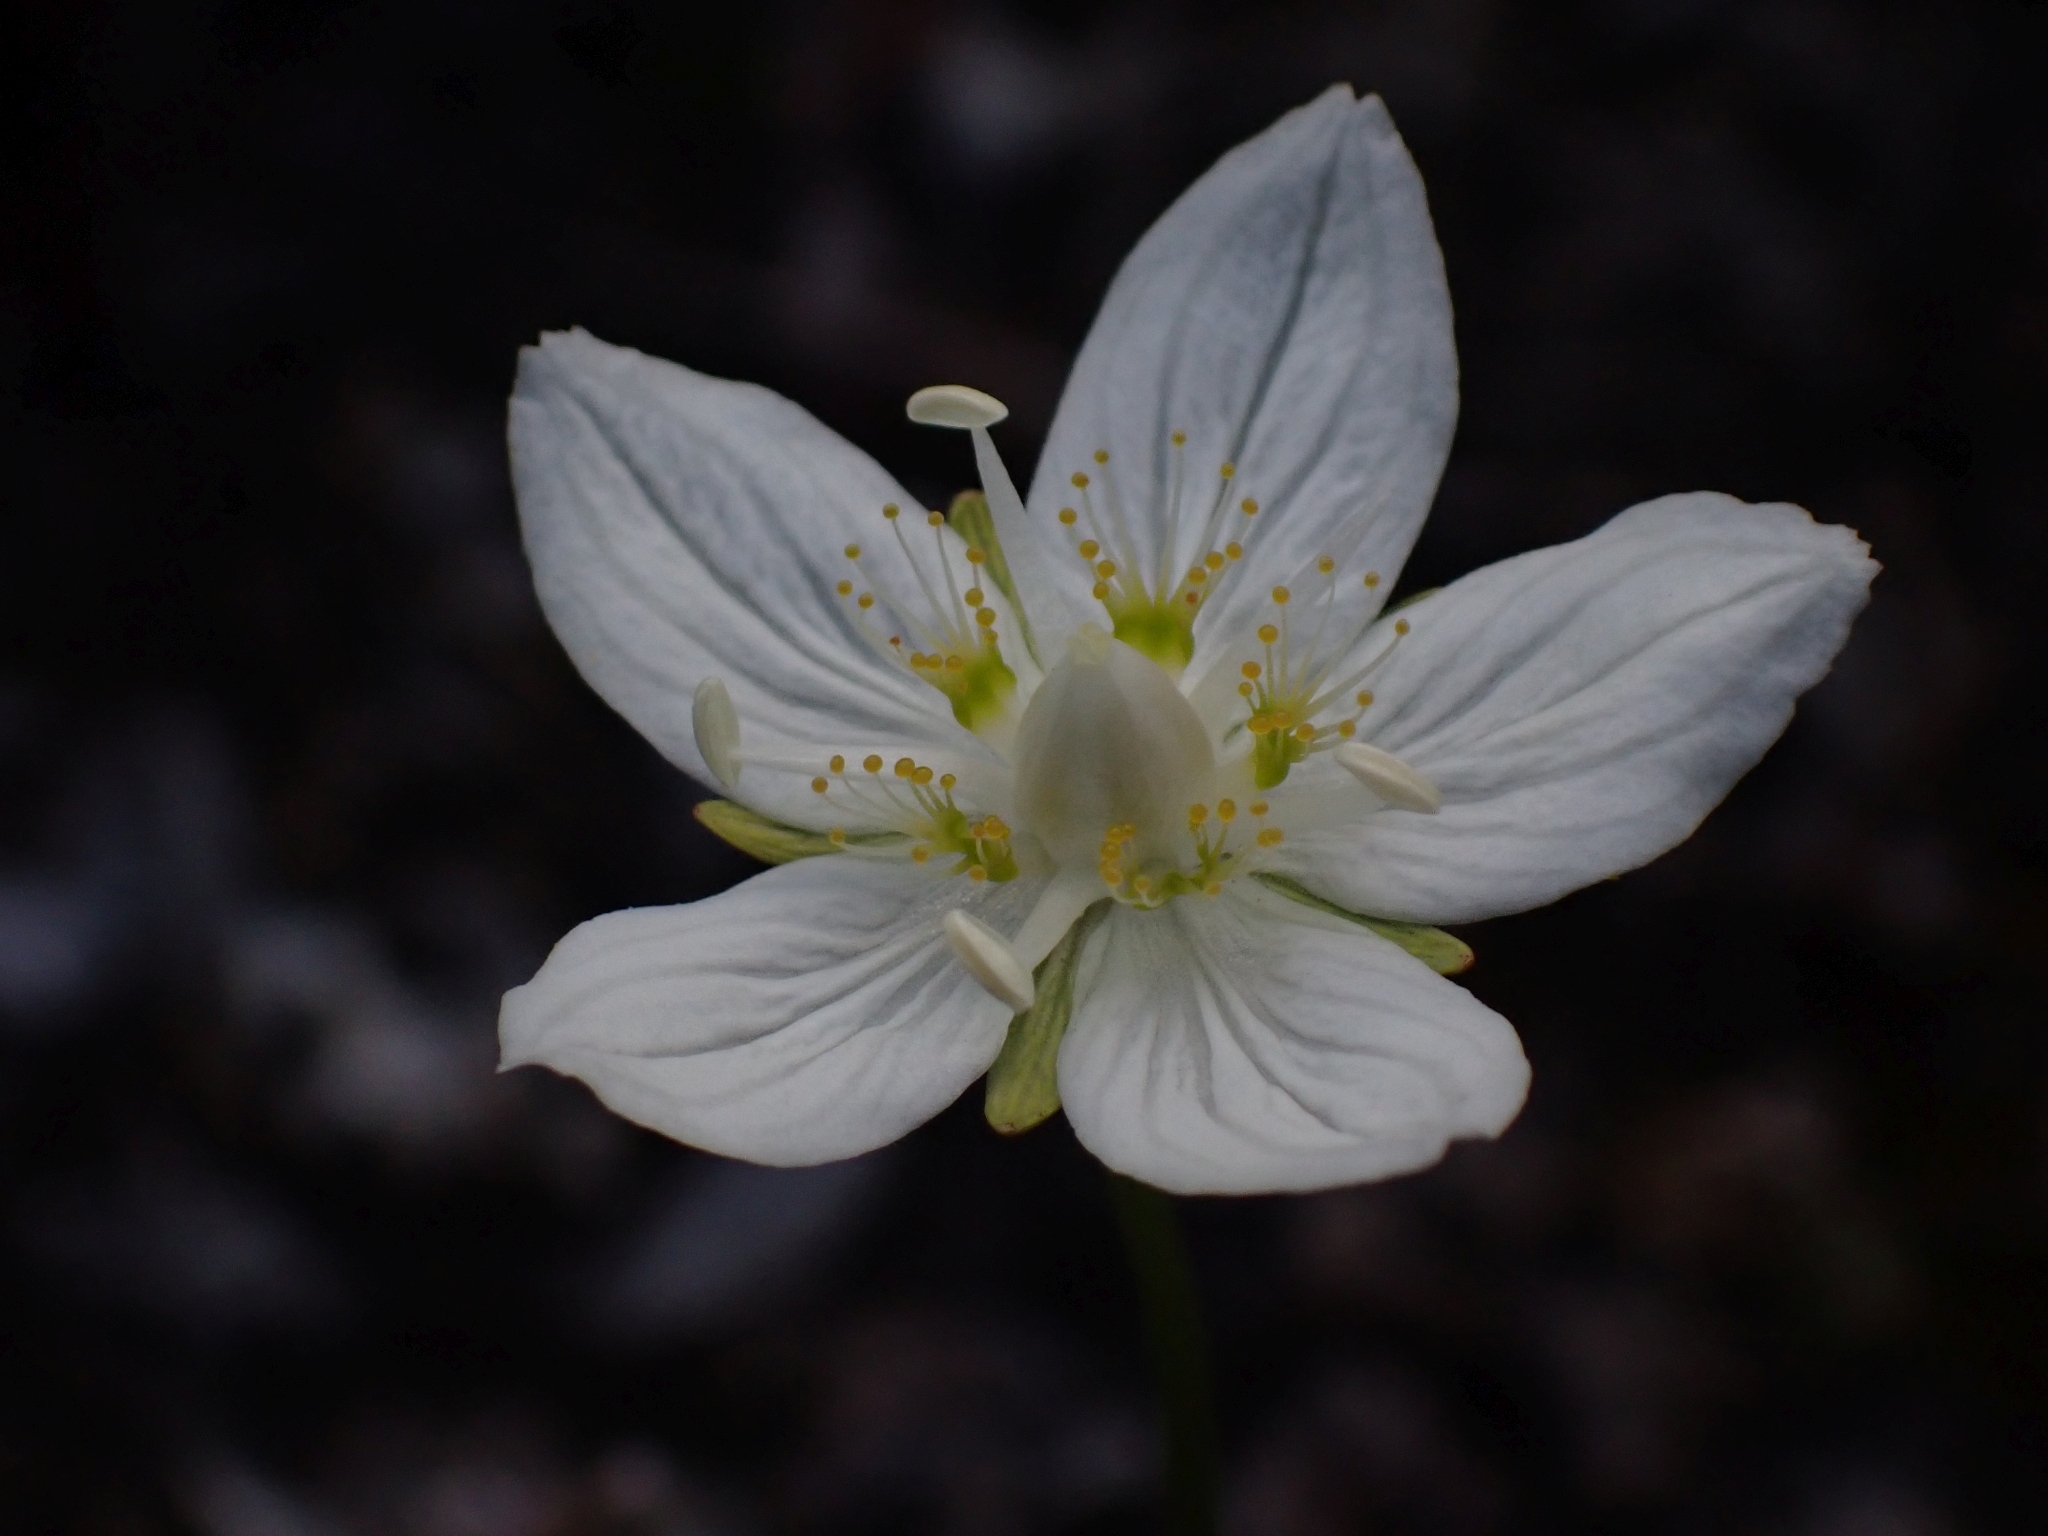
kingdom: Plantae
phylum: Tracheophyta
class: Magnoliopsida
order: Celastrales
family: Parnassiaceae
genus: Parnassia
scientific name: Parnassia palustris
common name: Grass-of-parnassus
